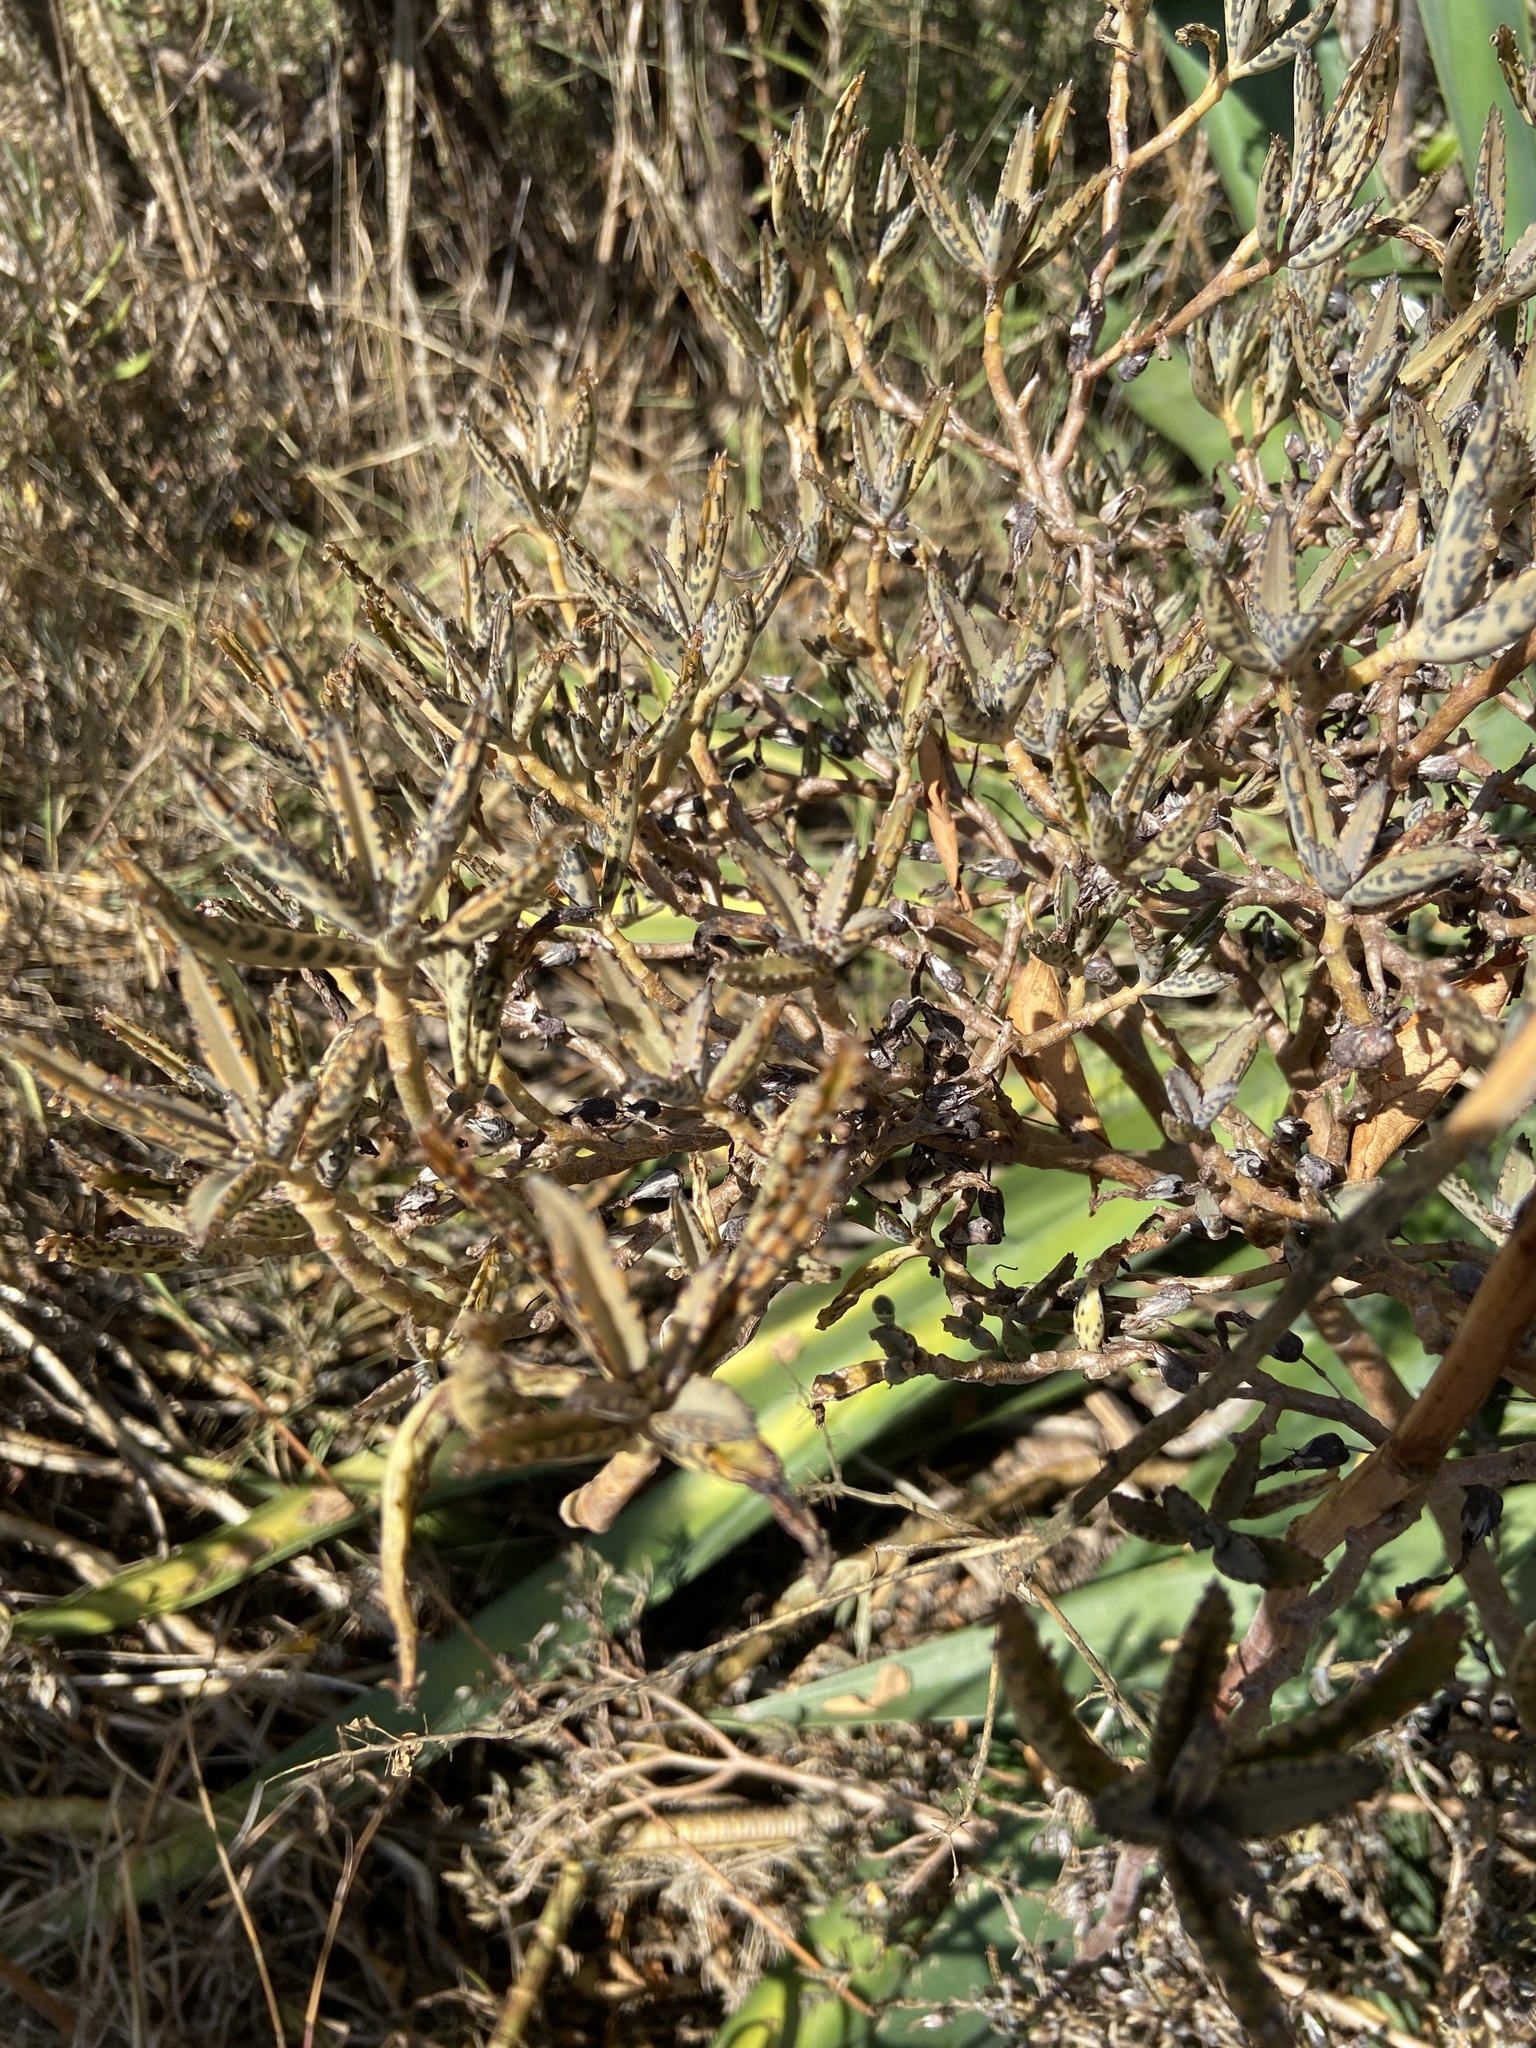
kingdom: Plantae
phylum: Tracheophyta
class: Magnoliopsida
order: Saxifragales
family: Crassulaceae
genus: Kalanchoe
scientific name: Kalanchoe houghtonii
